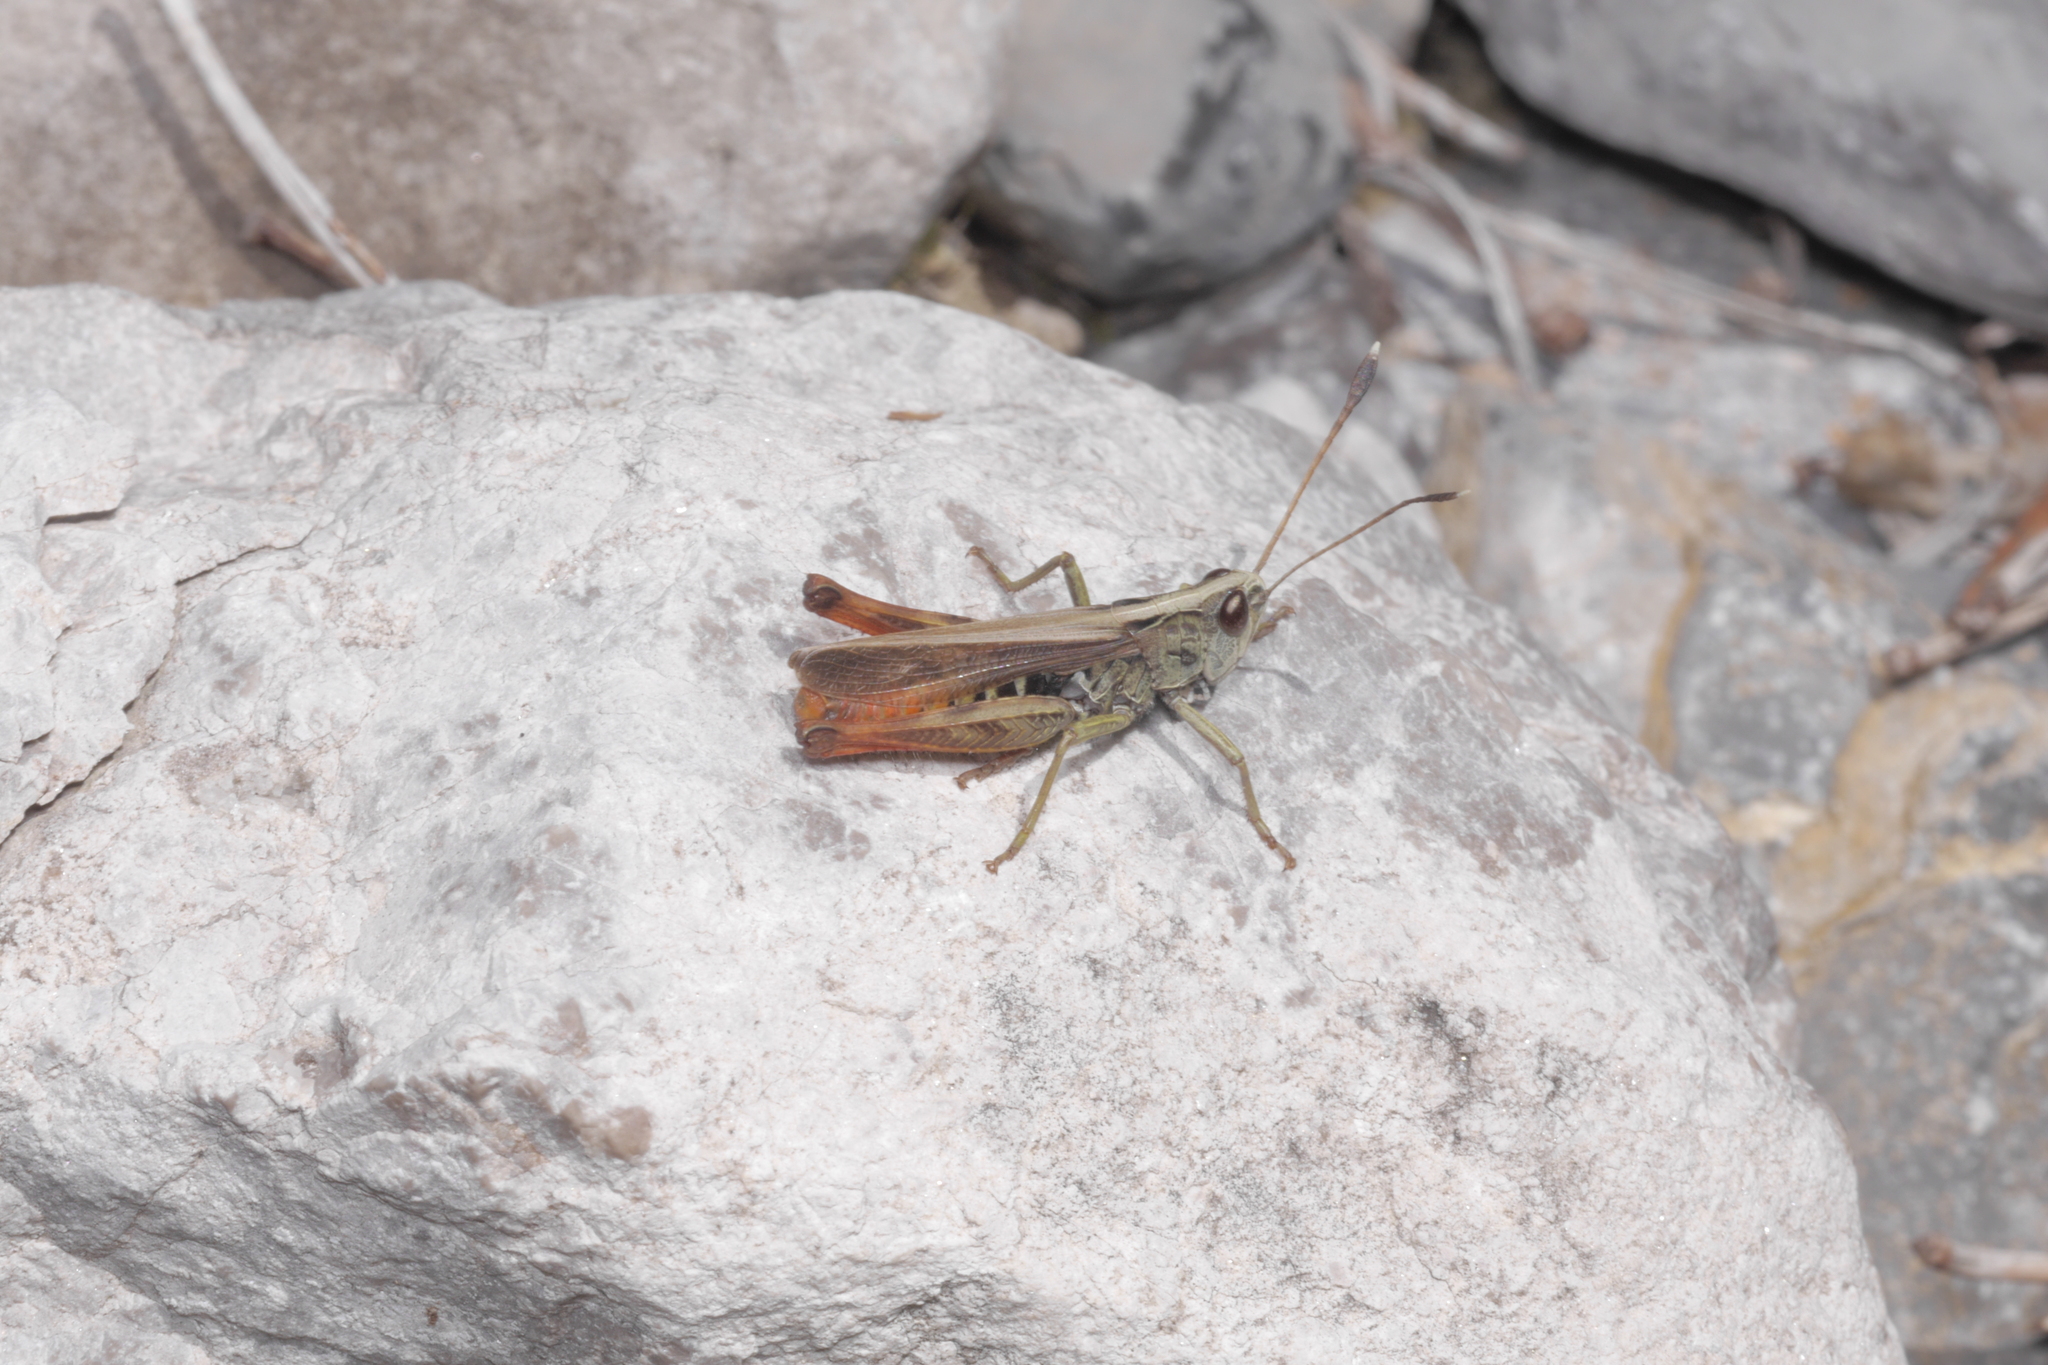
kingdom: Animalia
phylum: Arthropoda
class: Insecta
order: Orthoptera
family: Acrididae
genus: Gomphocerippus
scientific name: Gomphocerippus rufus
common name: Rufous grasshopper
